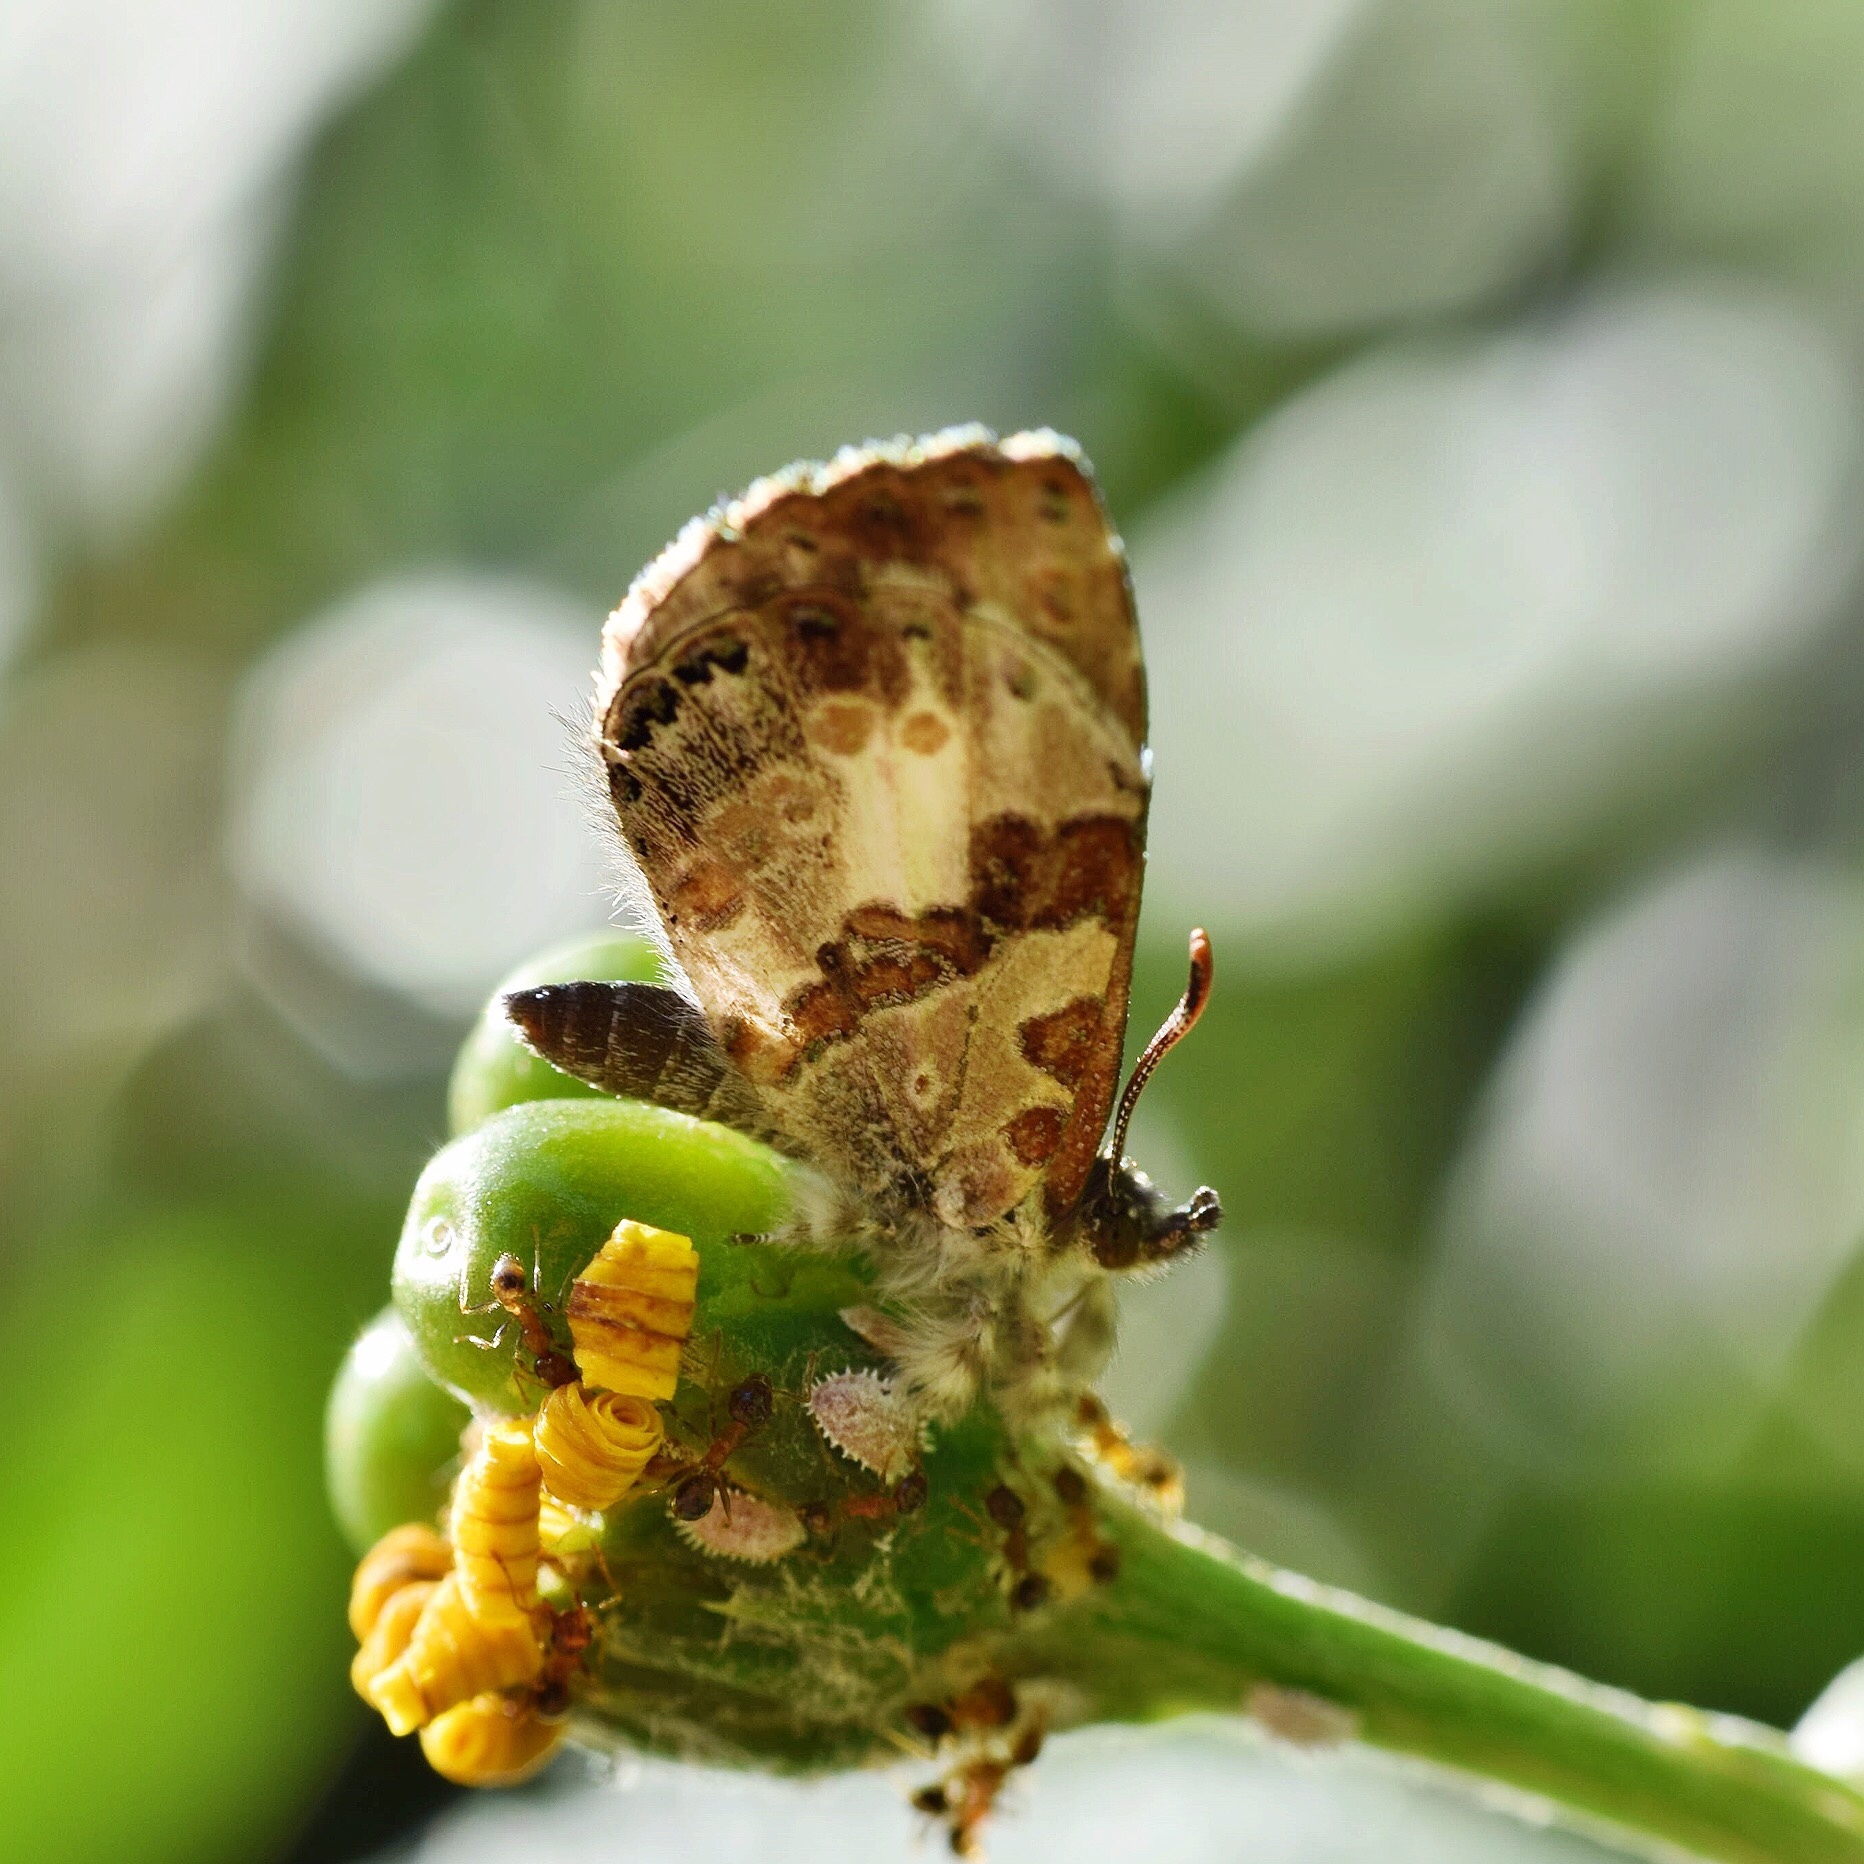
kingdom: Animalia
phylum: Arthropoda
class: Insecta
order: Lepidoptera
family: Lycaenidae
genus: Lachnocnema
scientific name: Lachnocnema bibulus
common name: Common woolly legs
